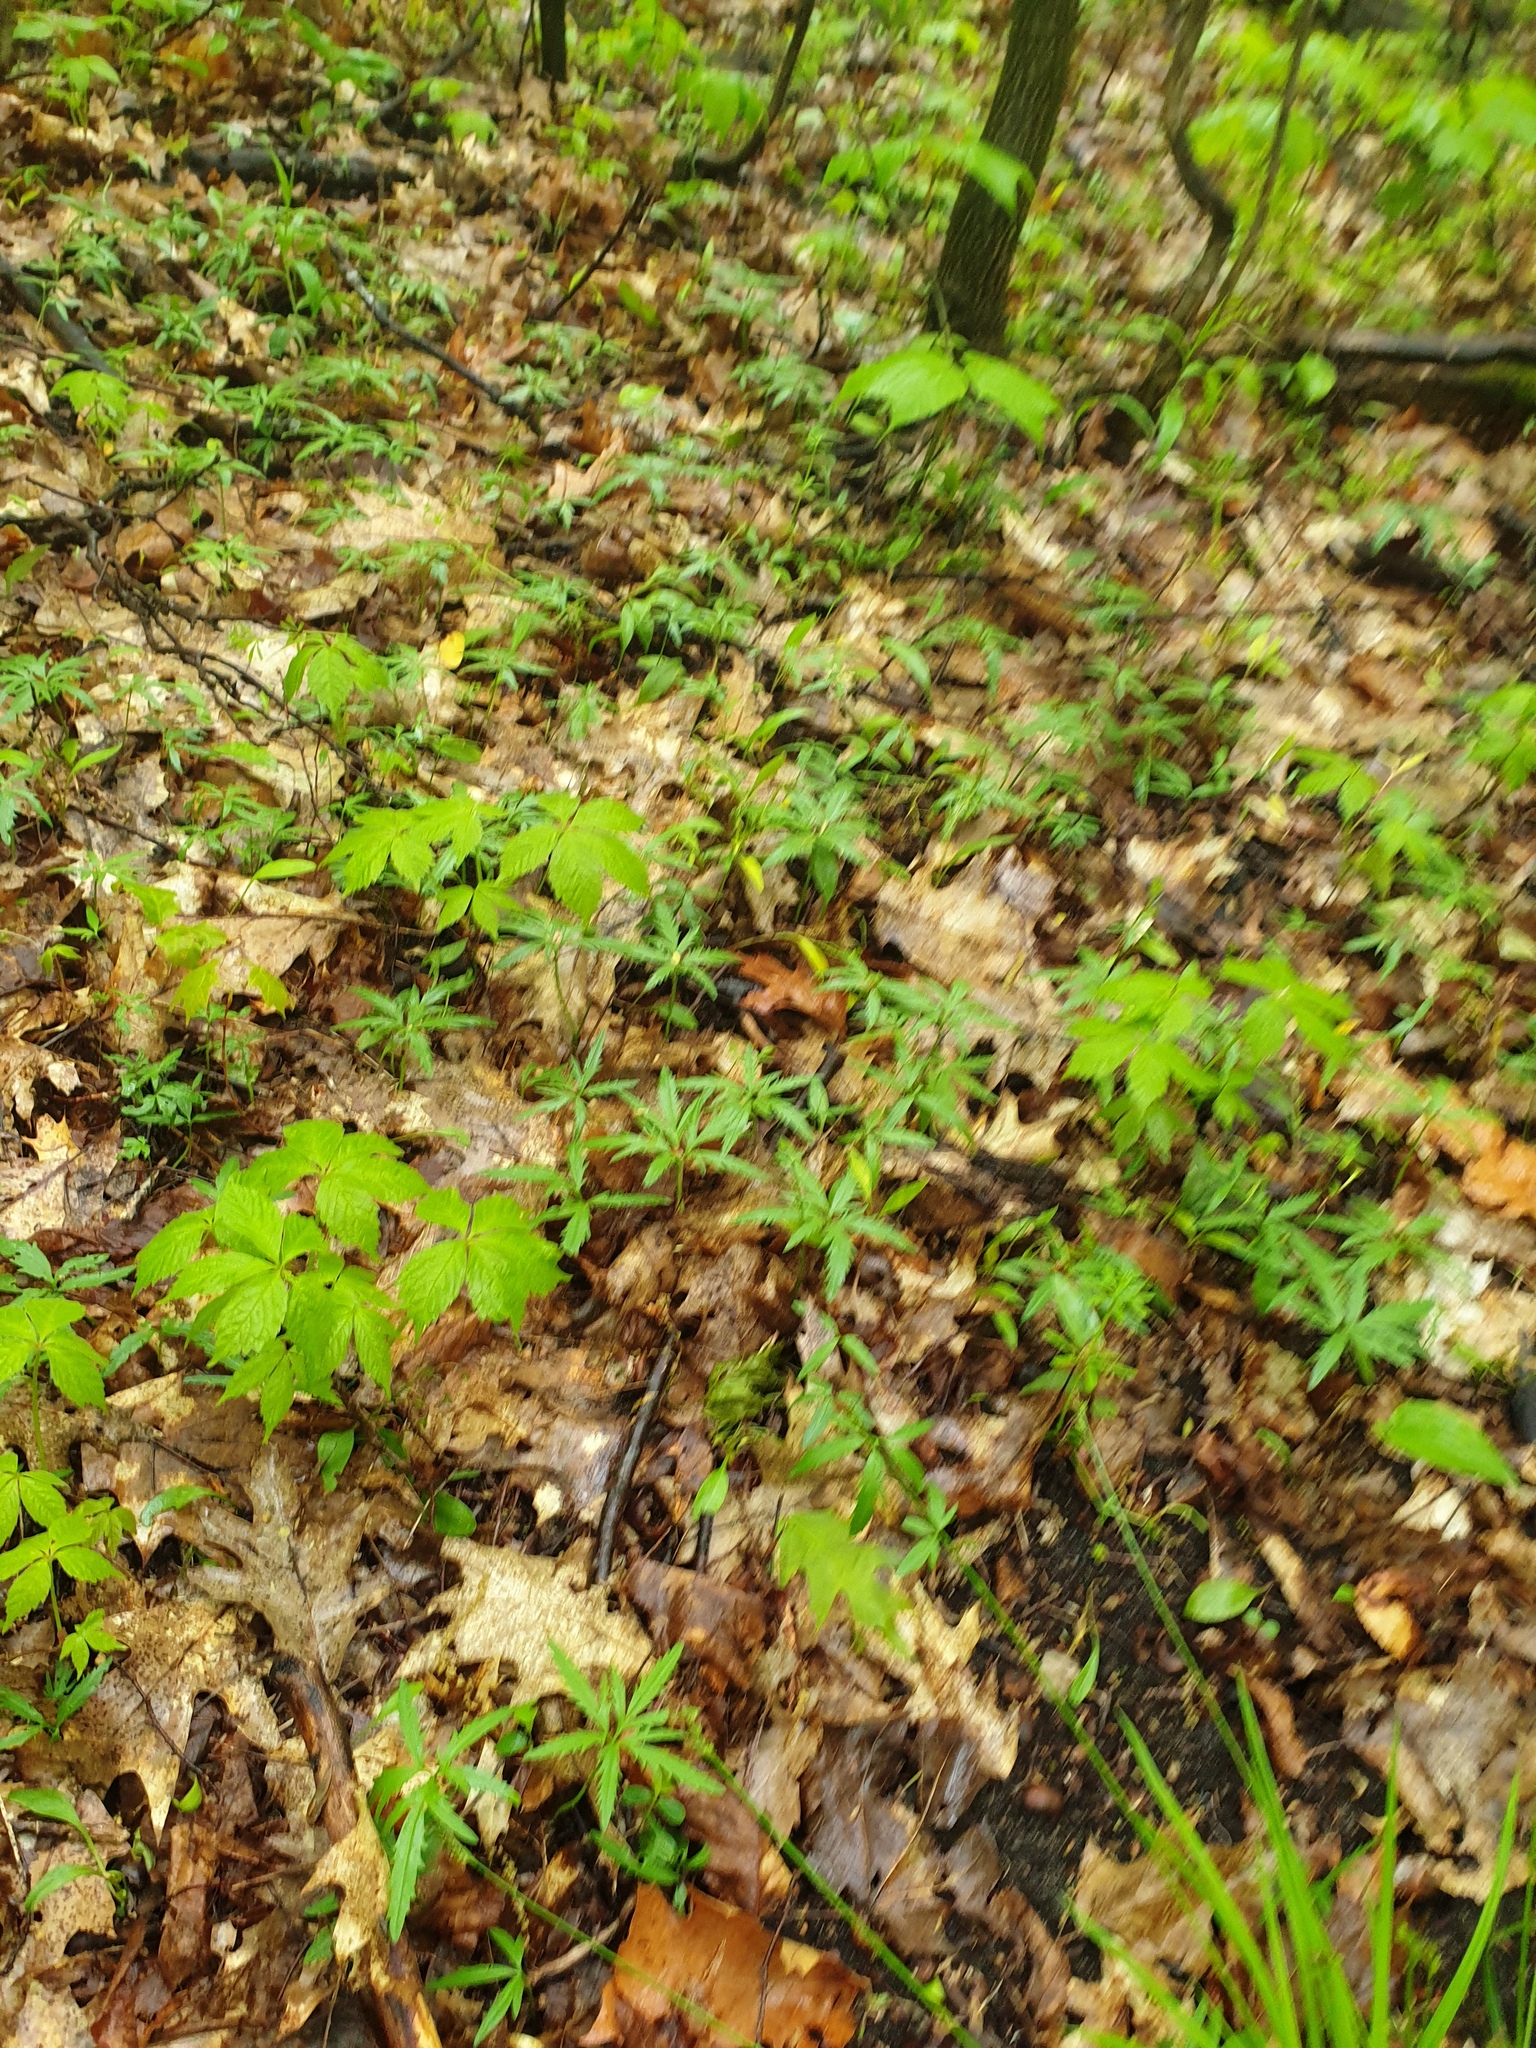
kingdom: Plantae
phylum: Tracheophyta
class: Magnoliopsida
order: Brassicales
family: Brassicaceae
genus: Cardamine
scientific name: Cardamine concatenata
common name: Cut-leaf toothcup
